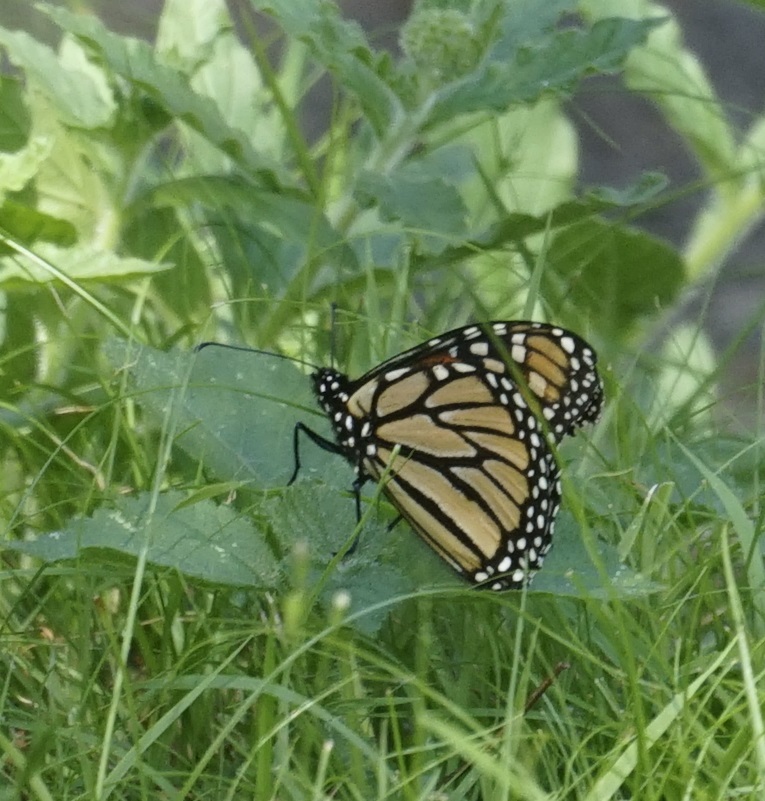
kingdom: Animalia
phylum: Arthropoda
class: Insecta
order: Lepidoptera
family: Nymphalidae
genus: Danaus
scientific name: Danaus plexippus
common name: Monarch
